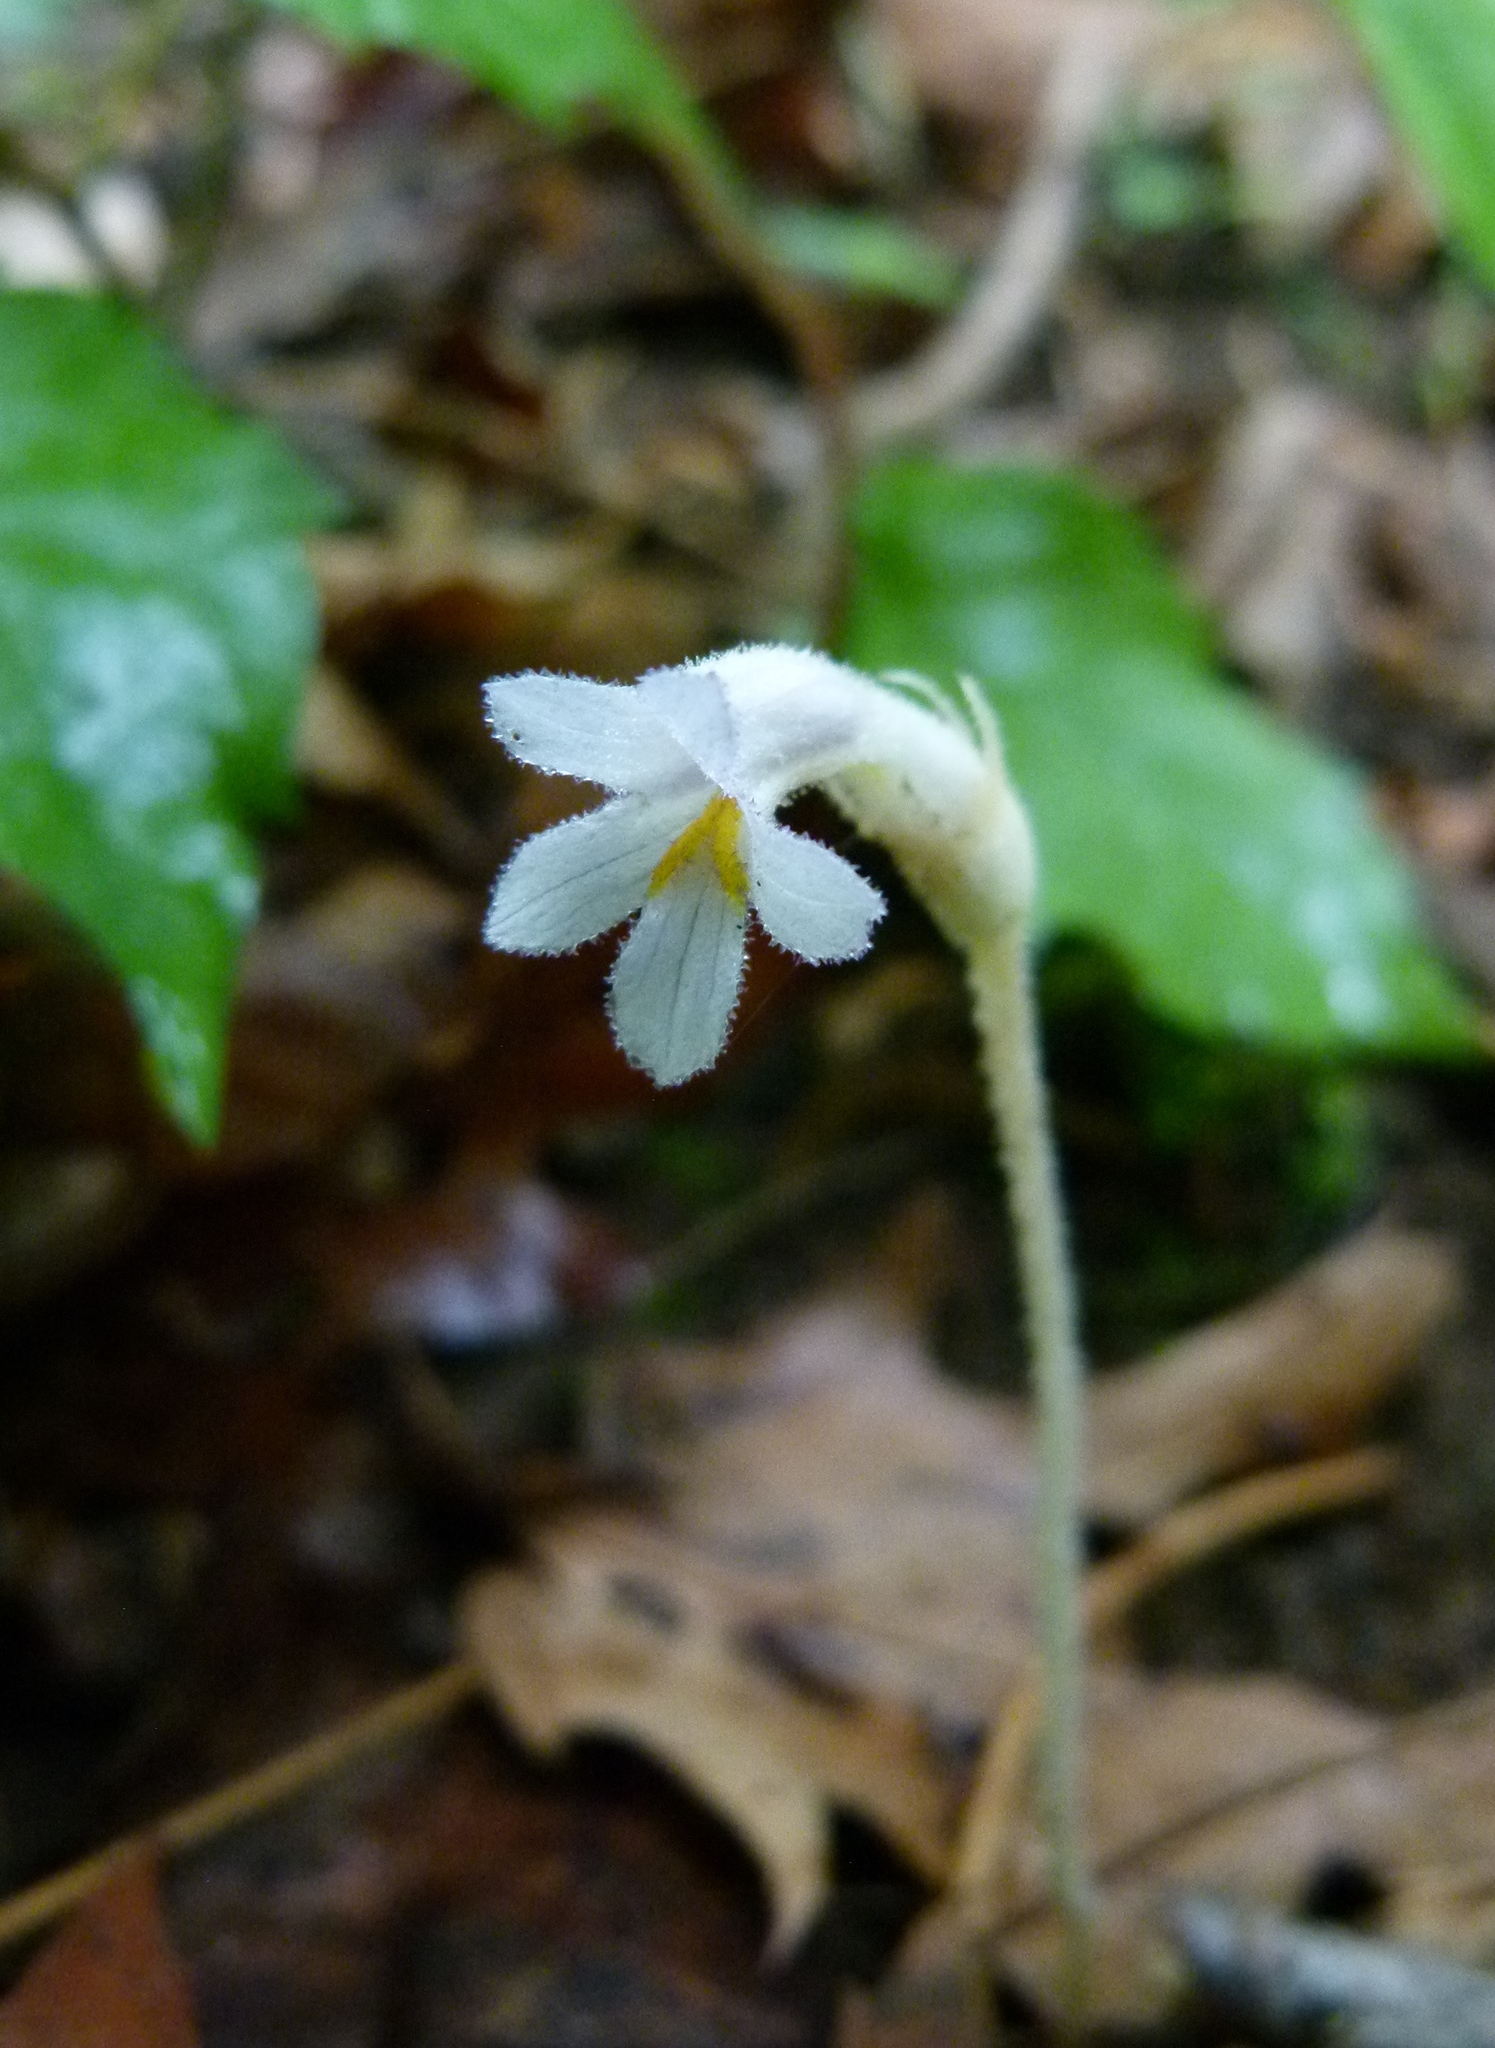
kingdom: Plantae
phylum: Tracheophyta
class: Magnoliopsida
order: Lamiales
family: Orobanchaceae
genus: Aphyllon
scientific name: Aphyllon uniflorum
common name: One-flowered broomrape
